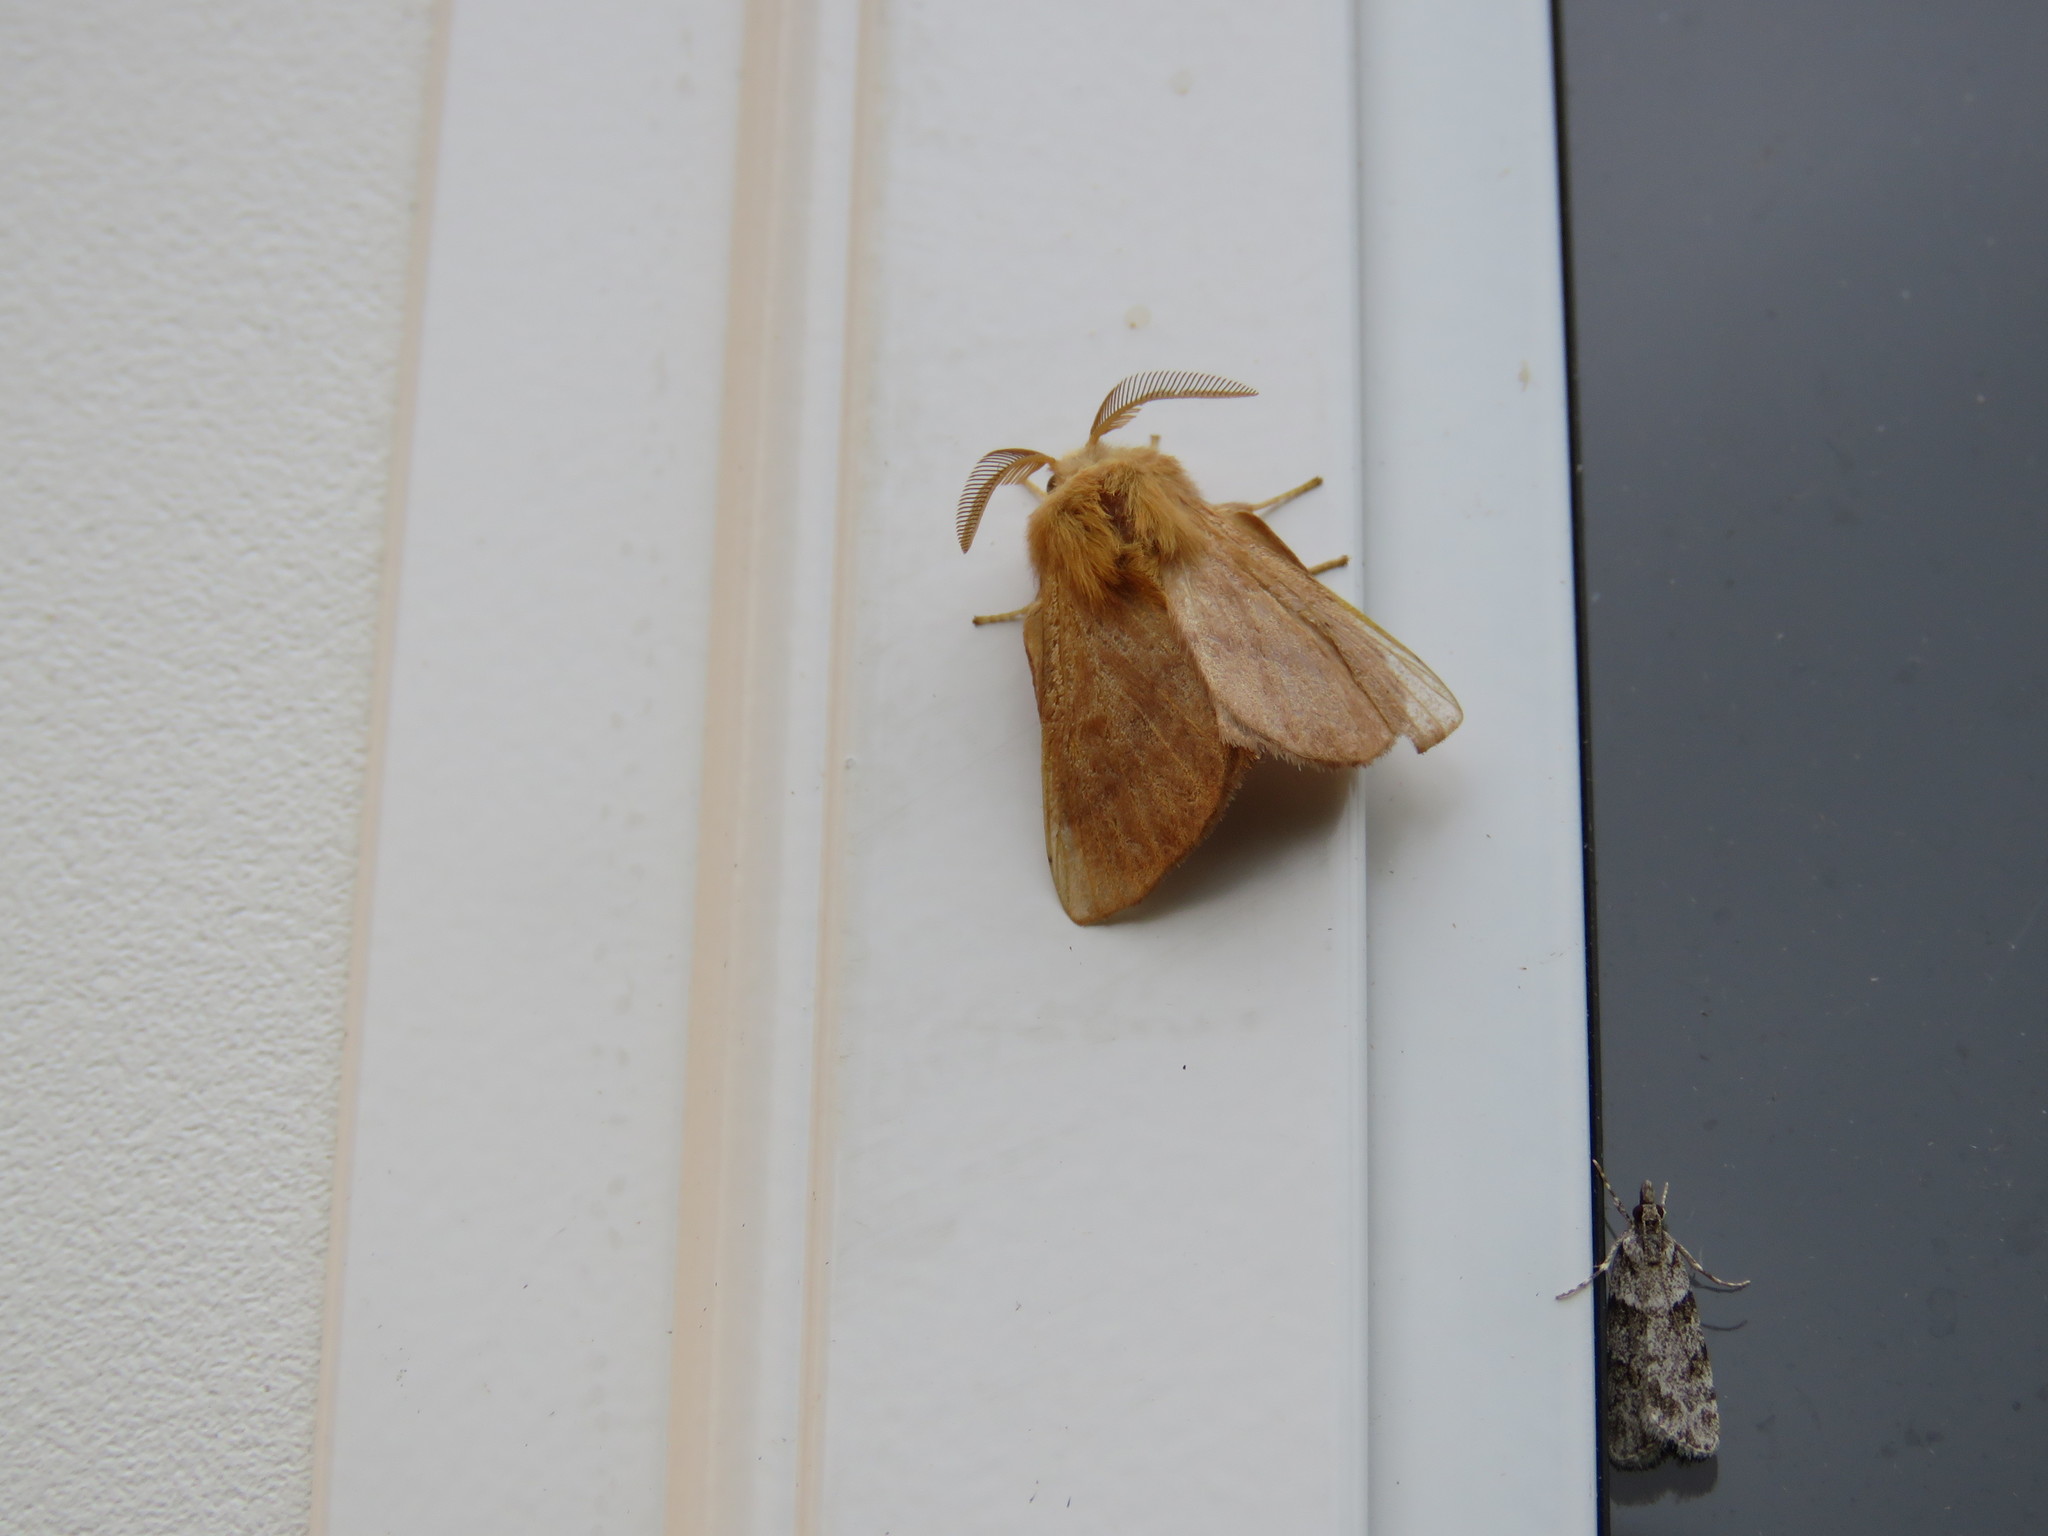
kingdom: Animalia
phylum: Arthropoda
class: Insecta
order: Lepidoptera
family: Lasiocampidae
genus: Malacosoma
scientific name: Malacosoma disstria
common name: Forest tent caterpillar
